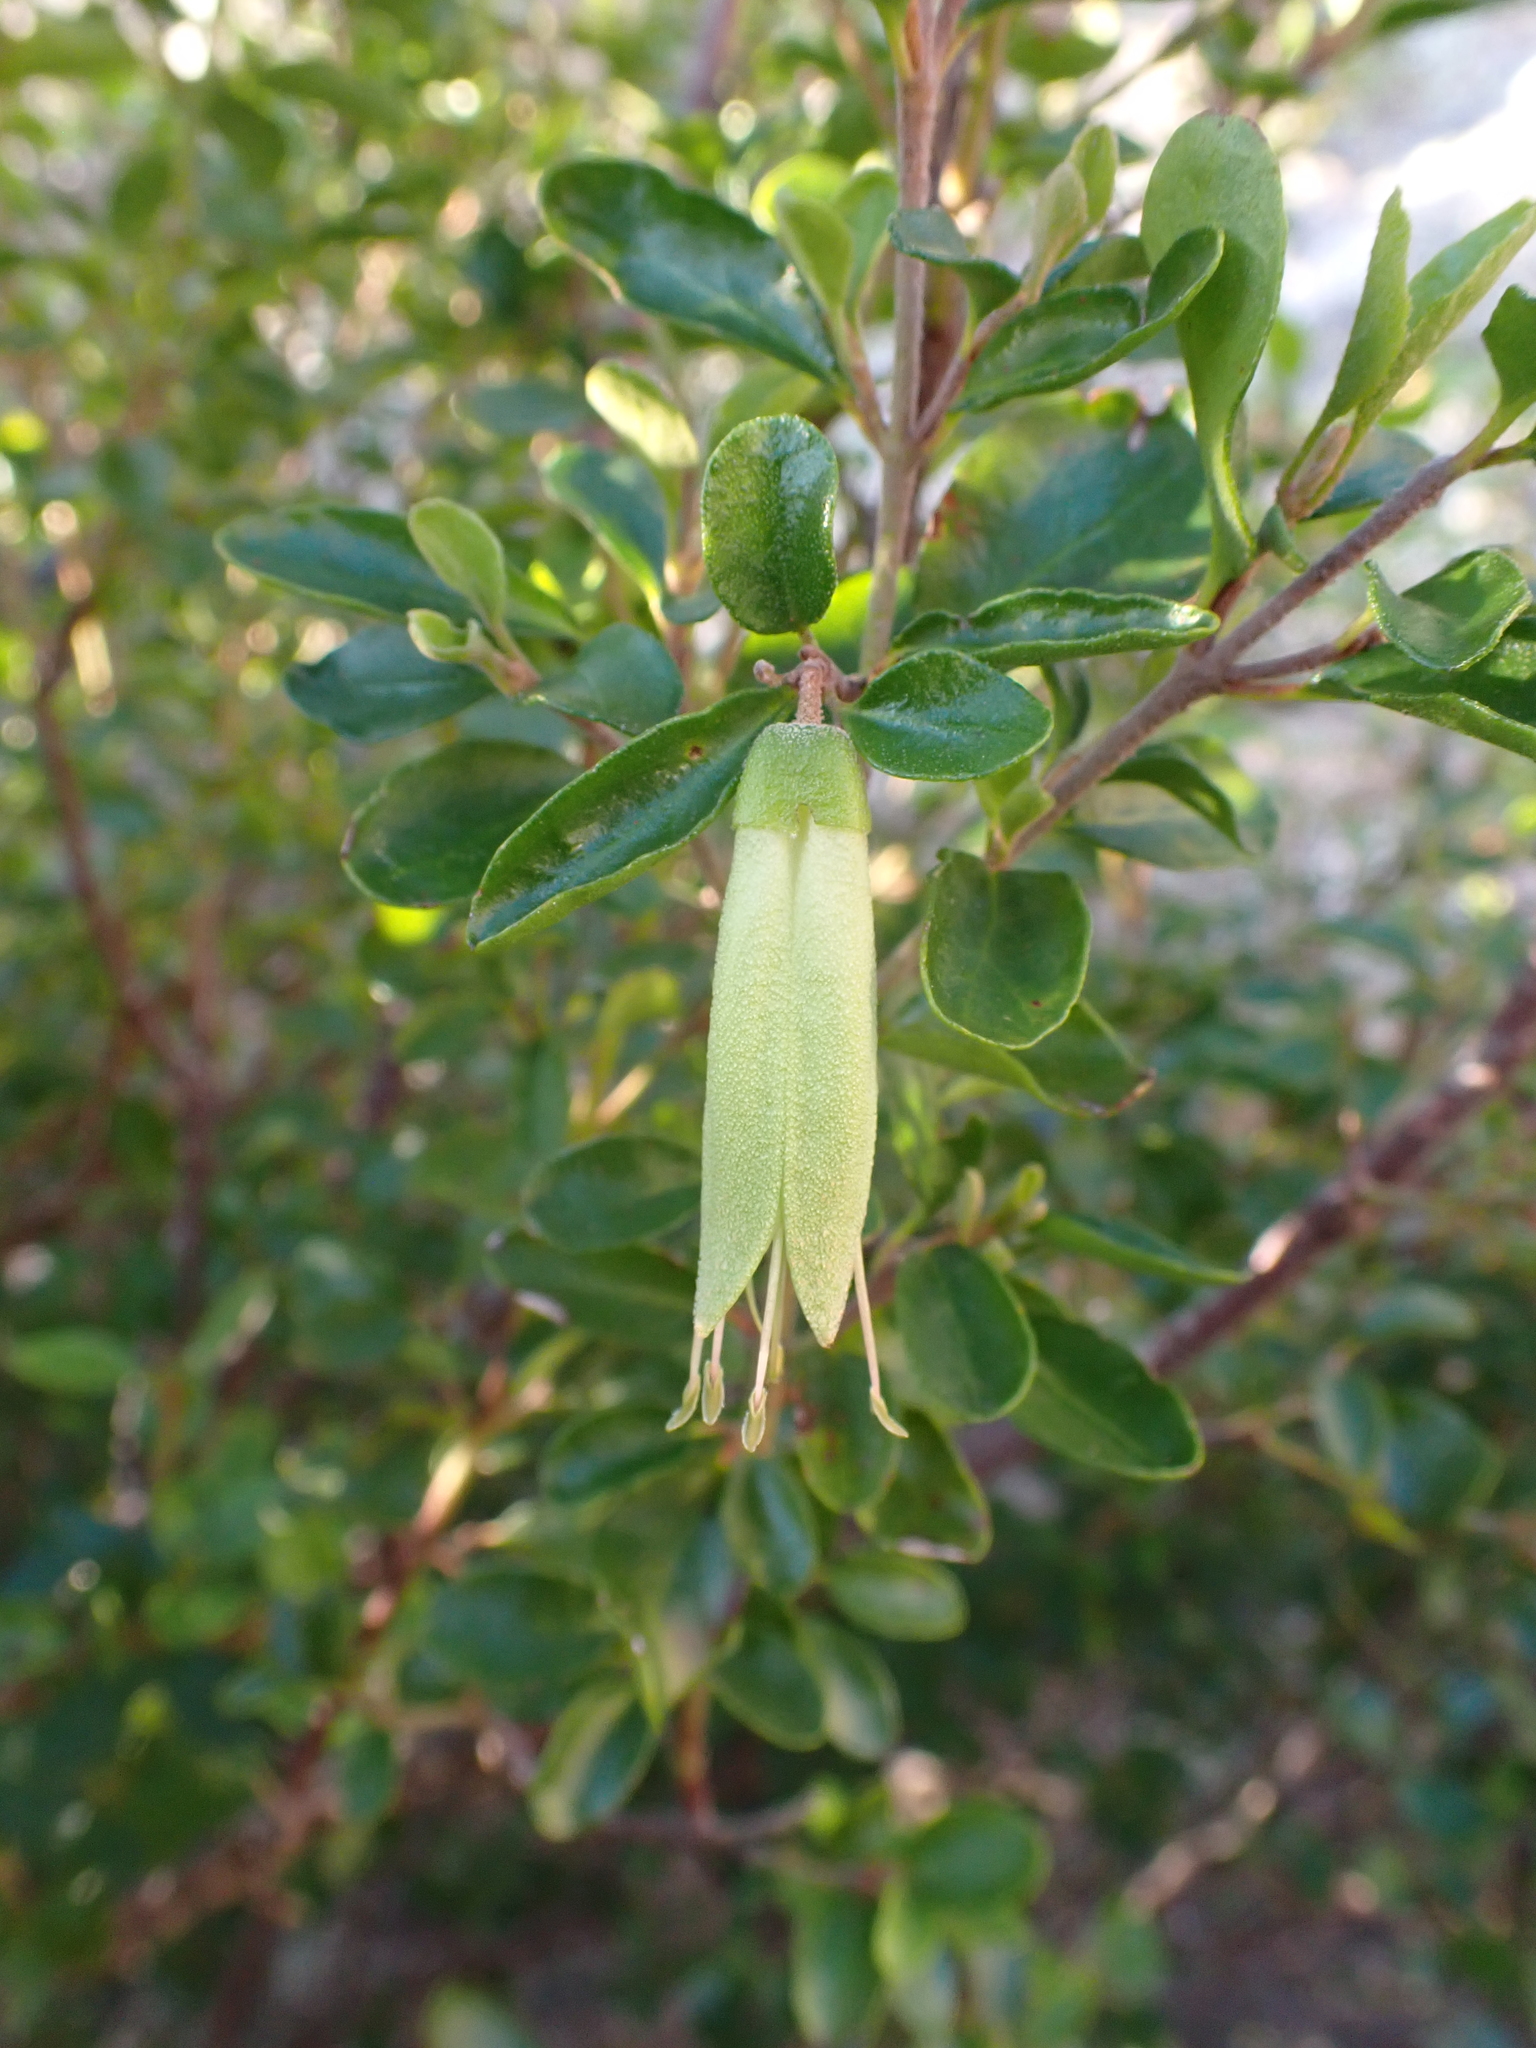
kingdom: Plantae
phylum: Tracheophyta
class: Magnoliopsida
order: Sapindales
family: Rutaceae
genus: Correa
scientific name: Correa glabra
